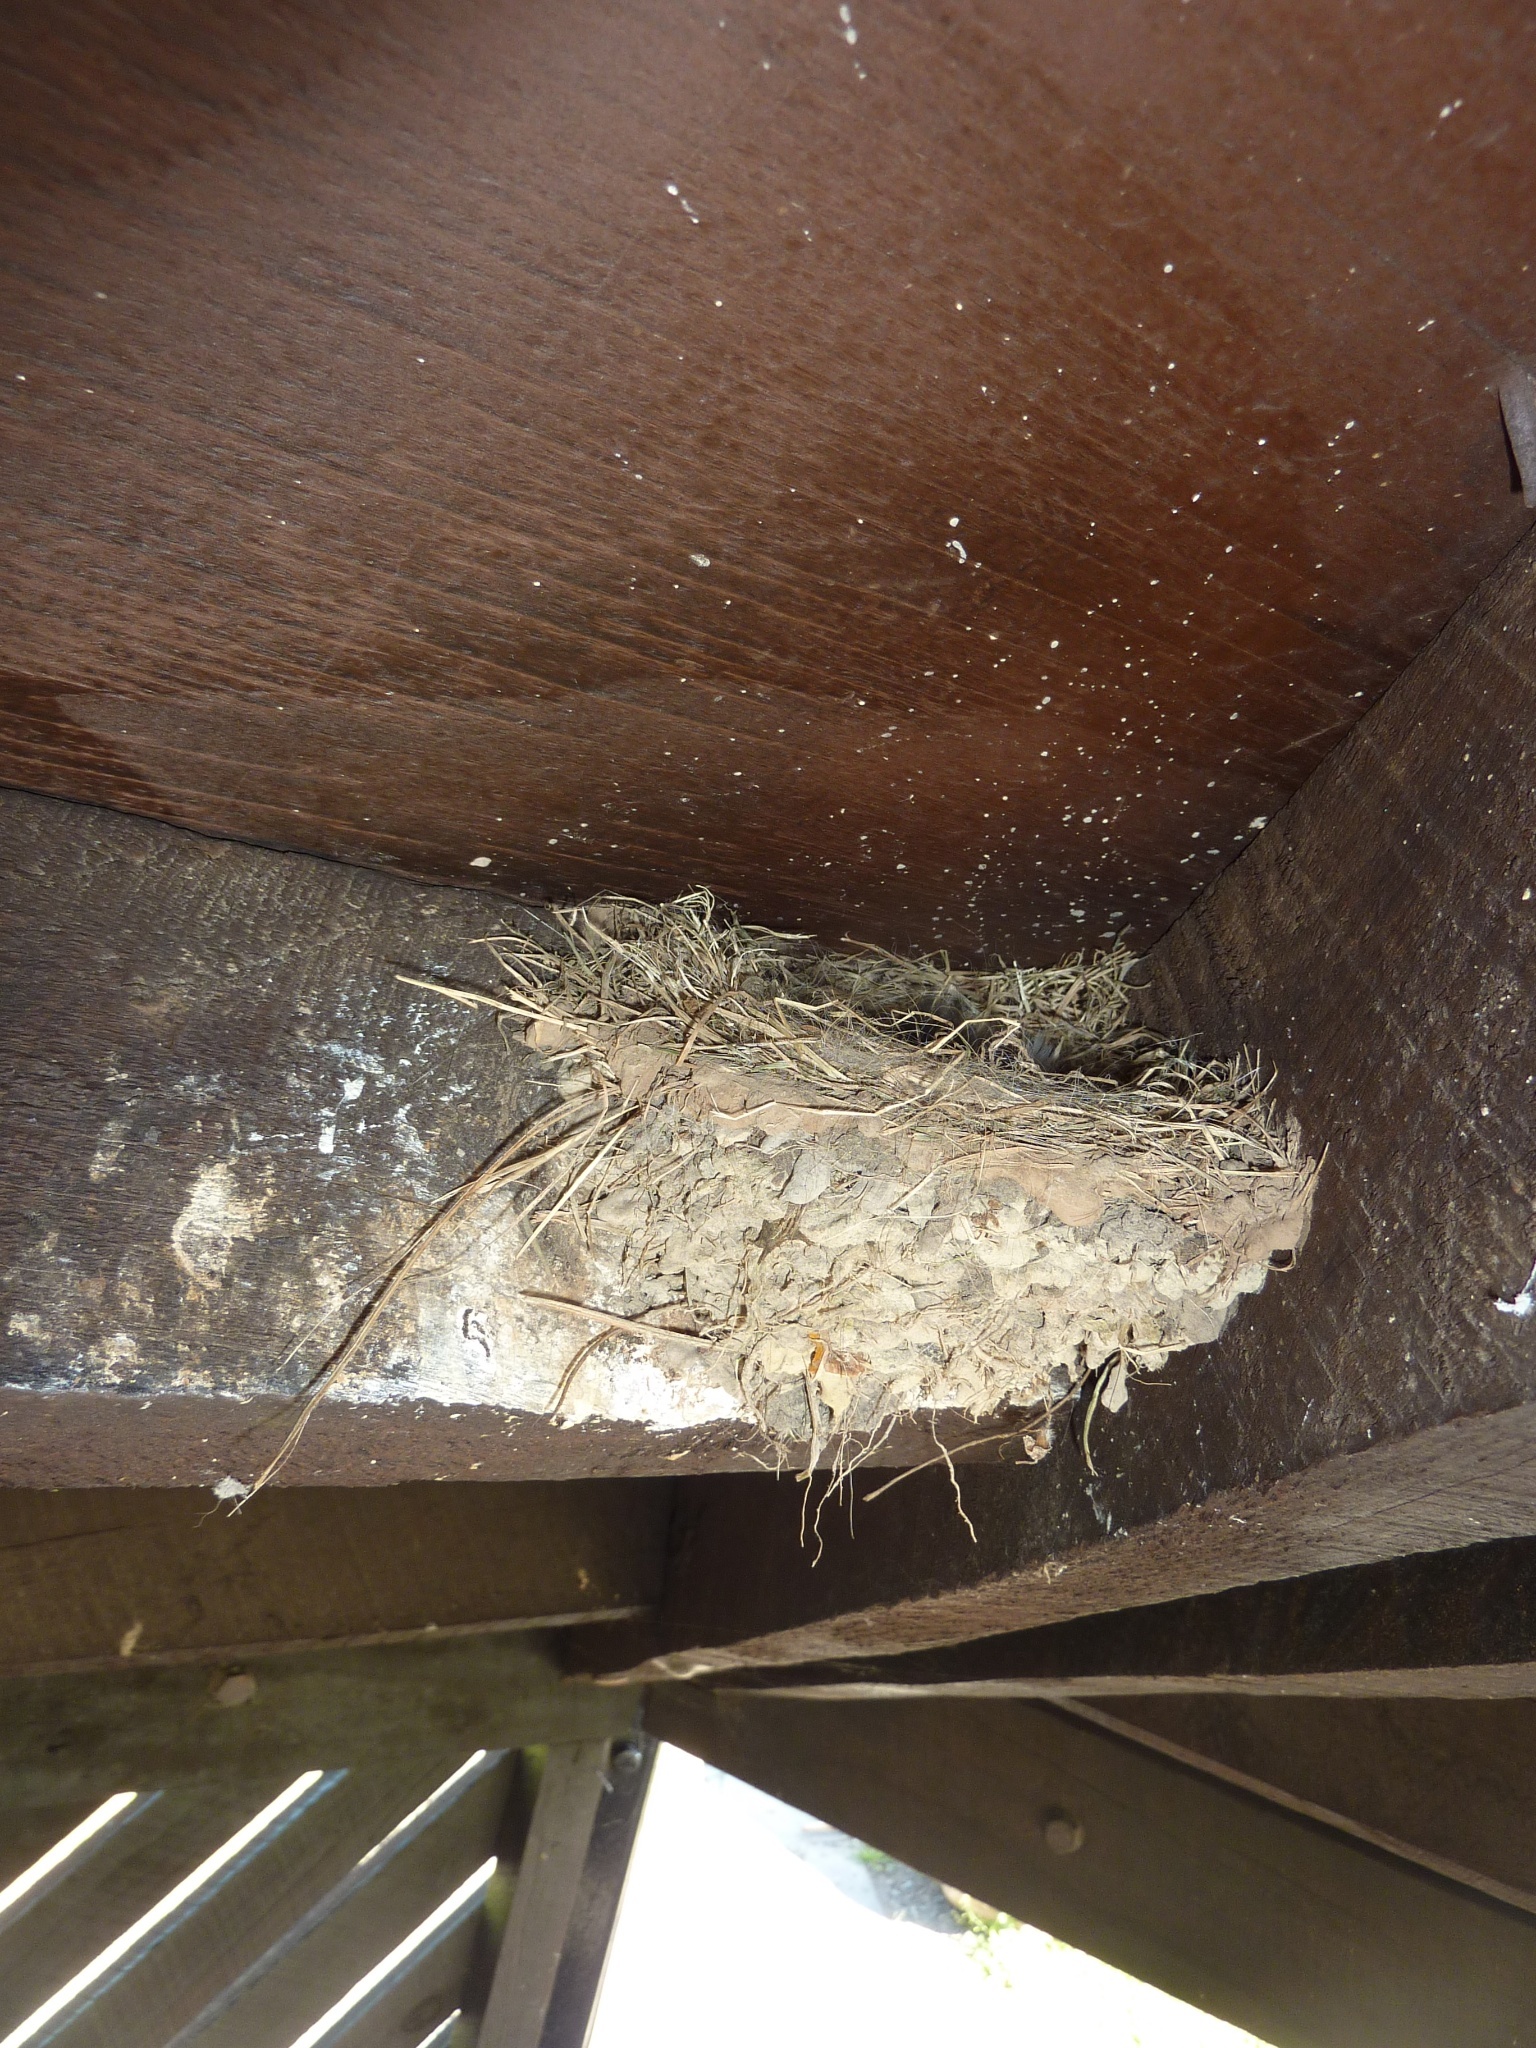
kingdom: Animalia
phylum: Chordata
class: Aves
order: Passeriformes
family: Hirundinidae
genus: Hirundo
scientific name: Hirundo neoxena
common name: Welcome swallow
